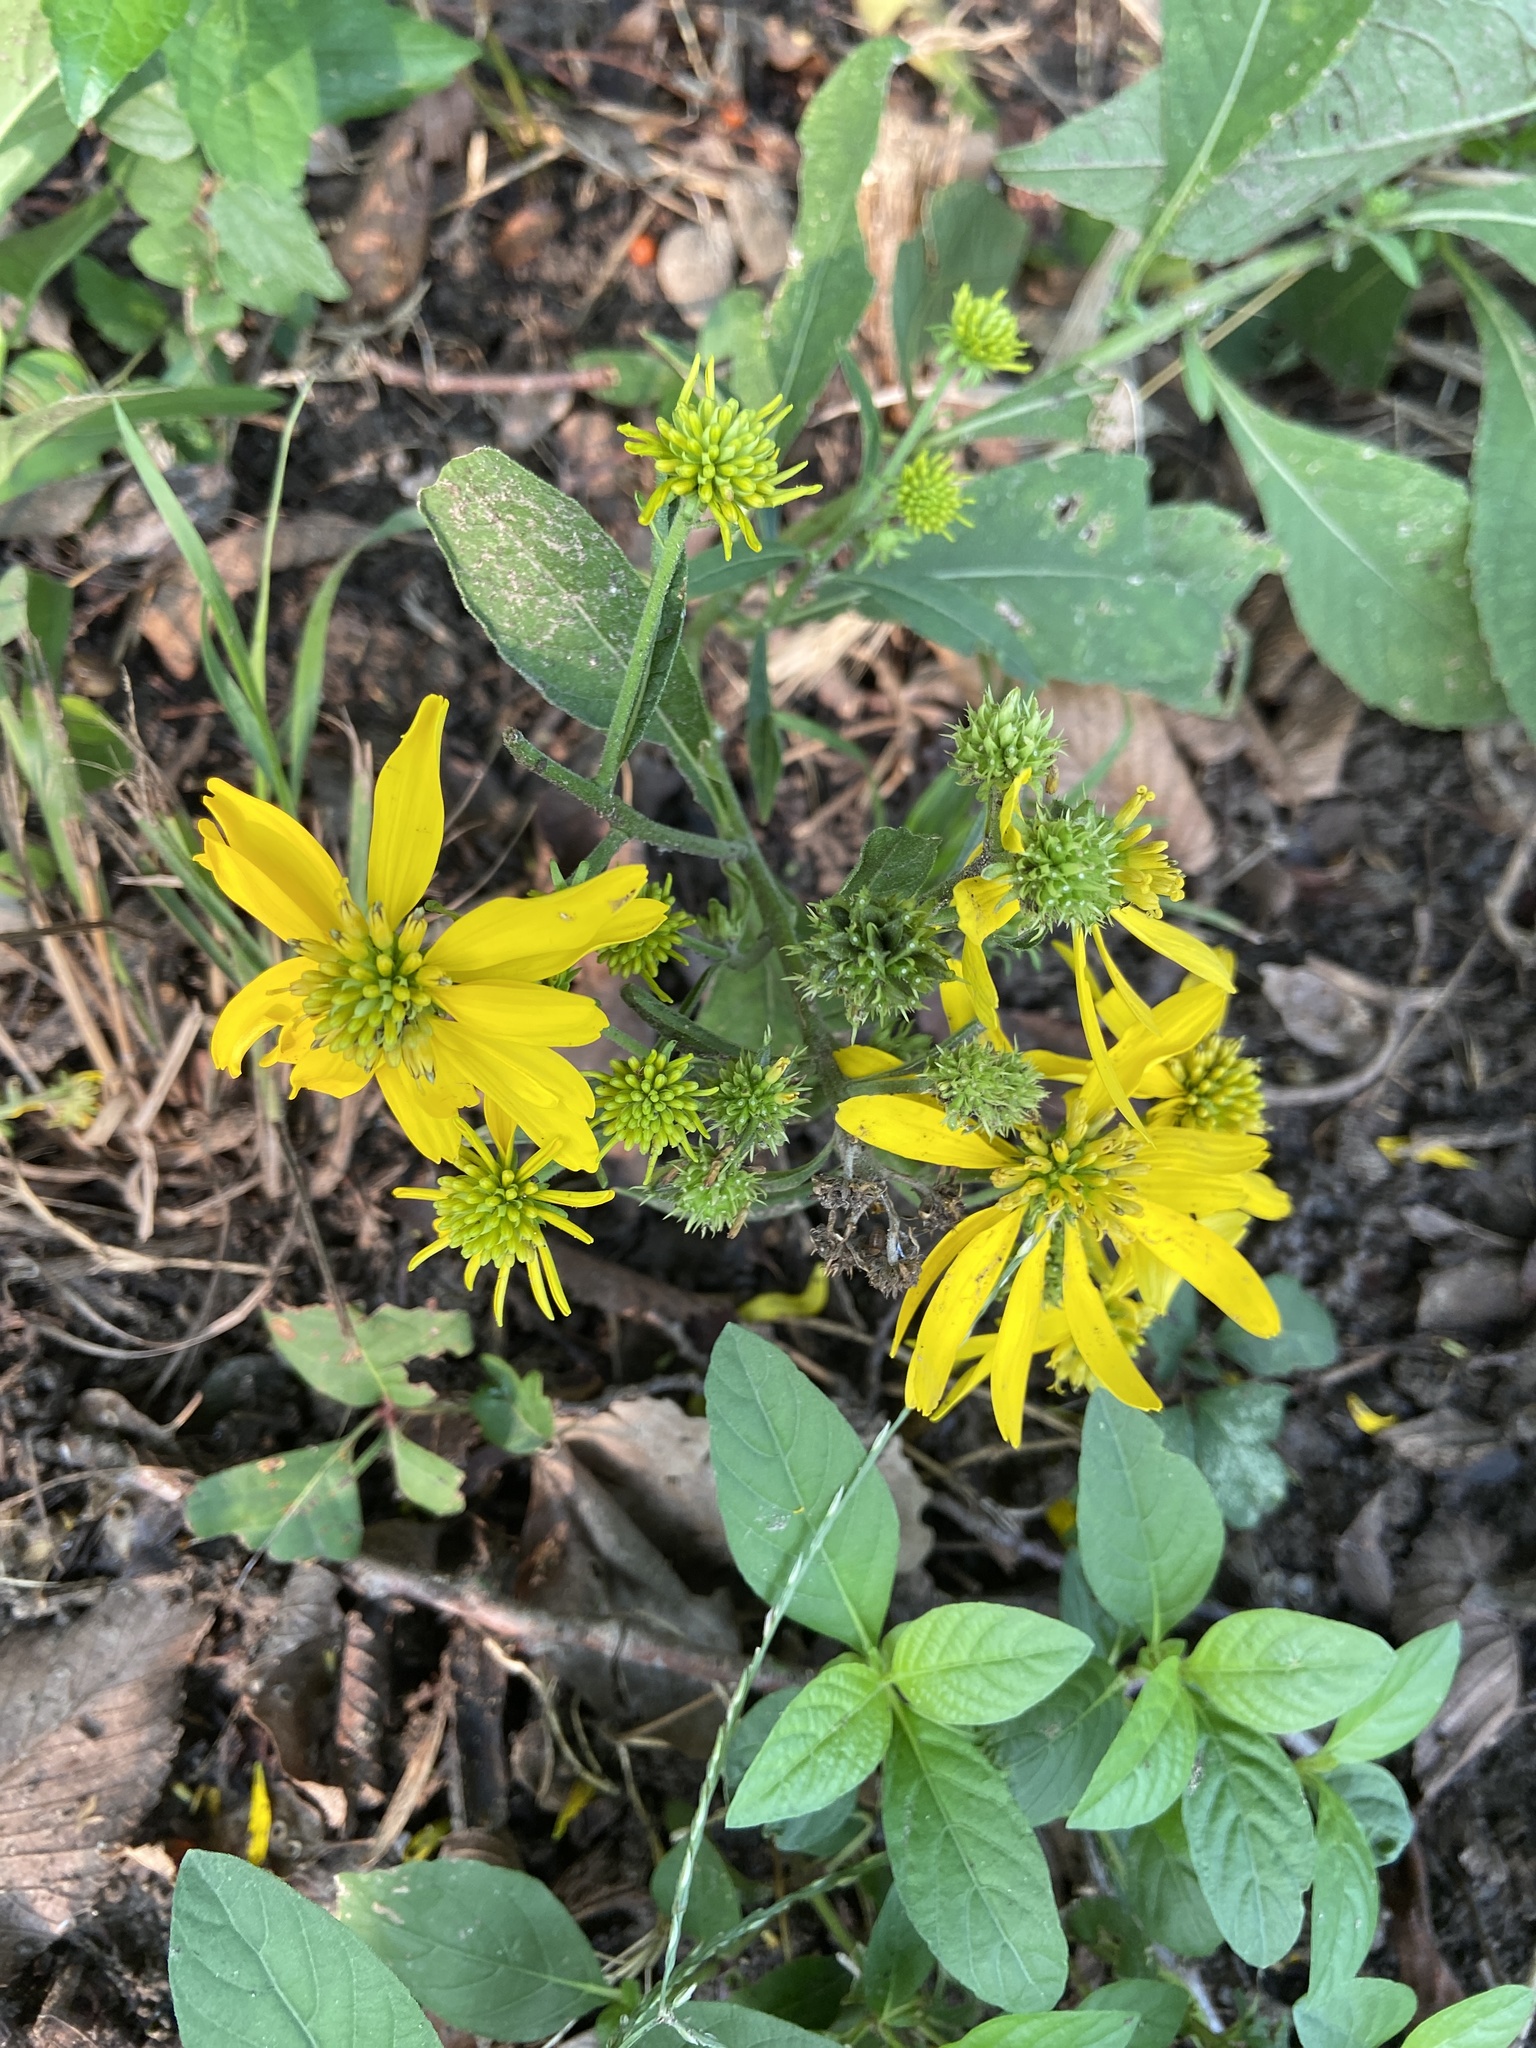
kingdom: Plantae
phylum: Tracheophyta
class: Magnoliopsida
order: Asterales
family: Asteraceae
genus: Verbesina
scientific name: Verbesina alternifolia
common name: Wingstem
